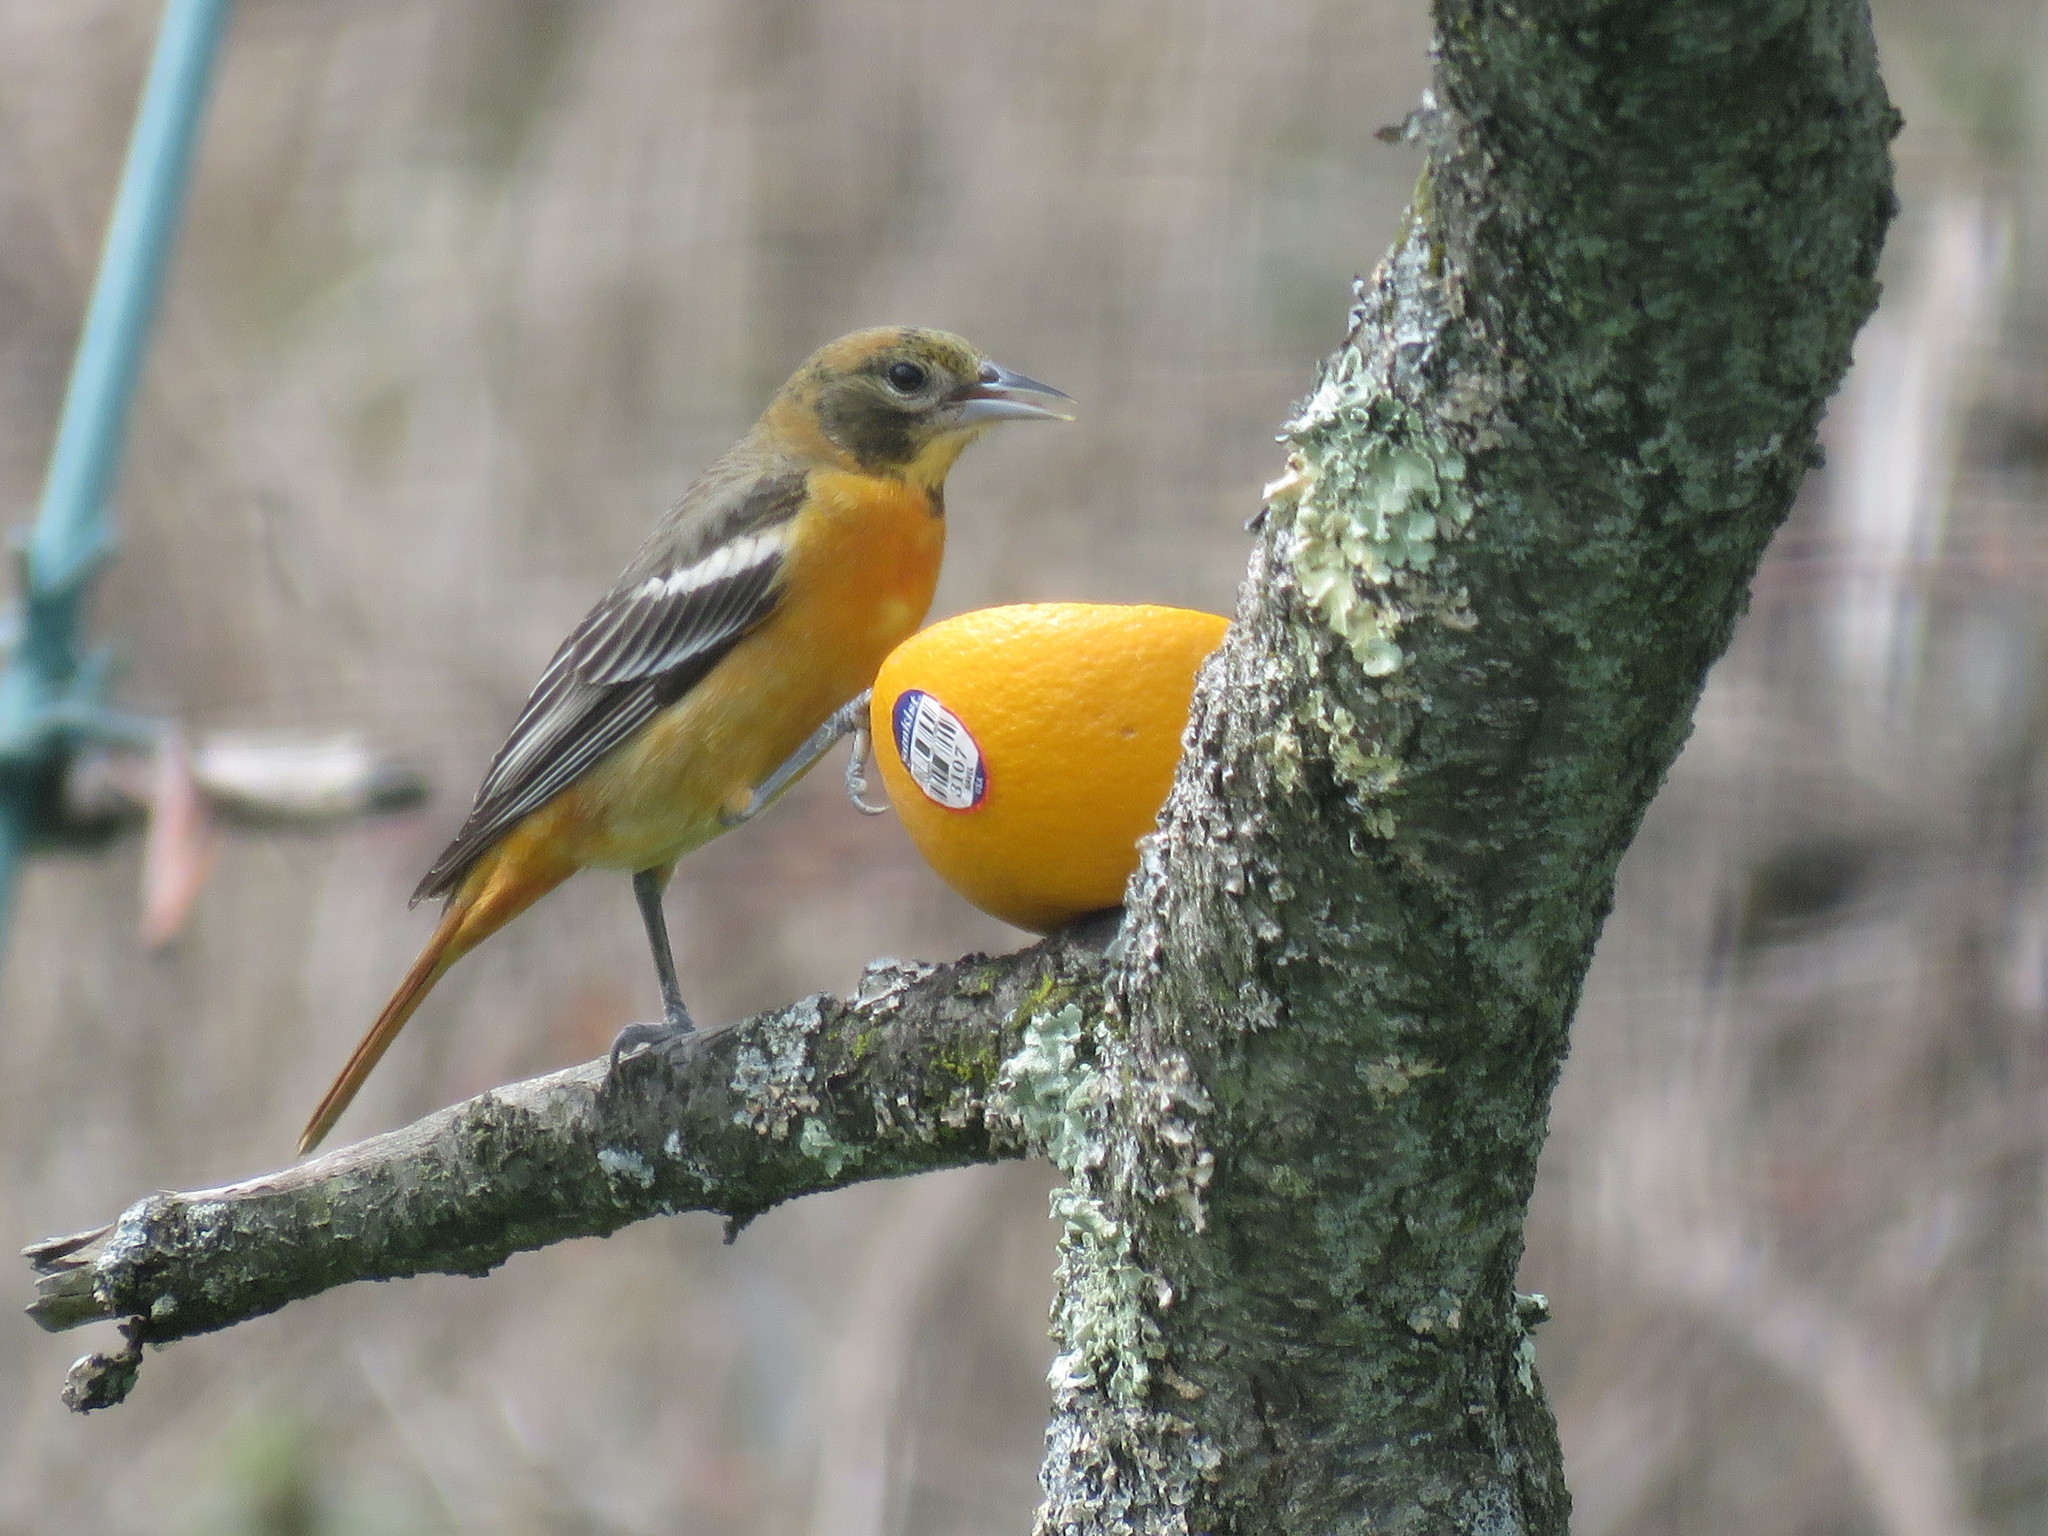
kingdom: Animalia
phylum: Chordata
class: Aves
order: Passeriformes
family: Icteridae
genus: Icterus
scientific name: Icterus galbula
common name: Baltimore oriole
